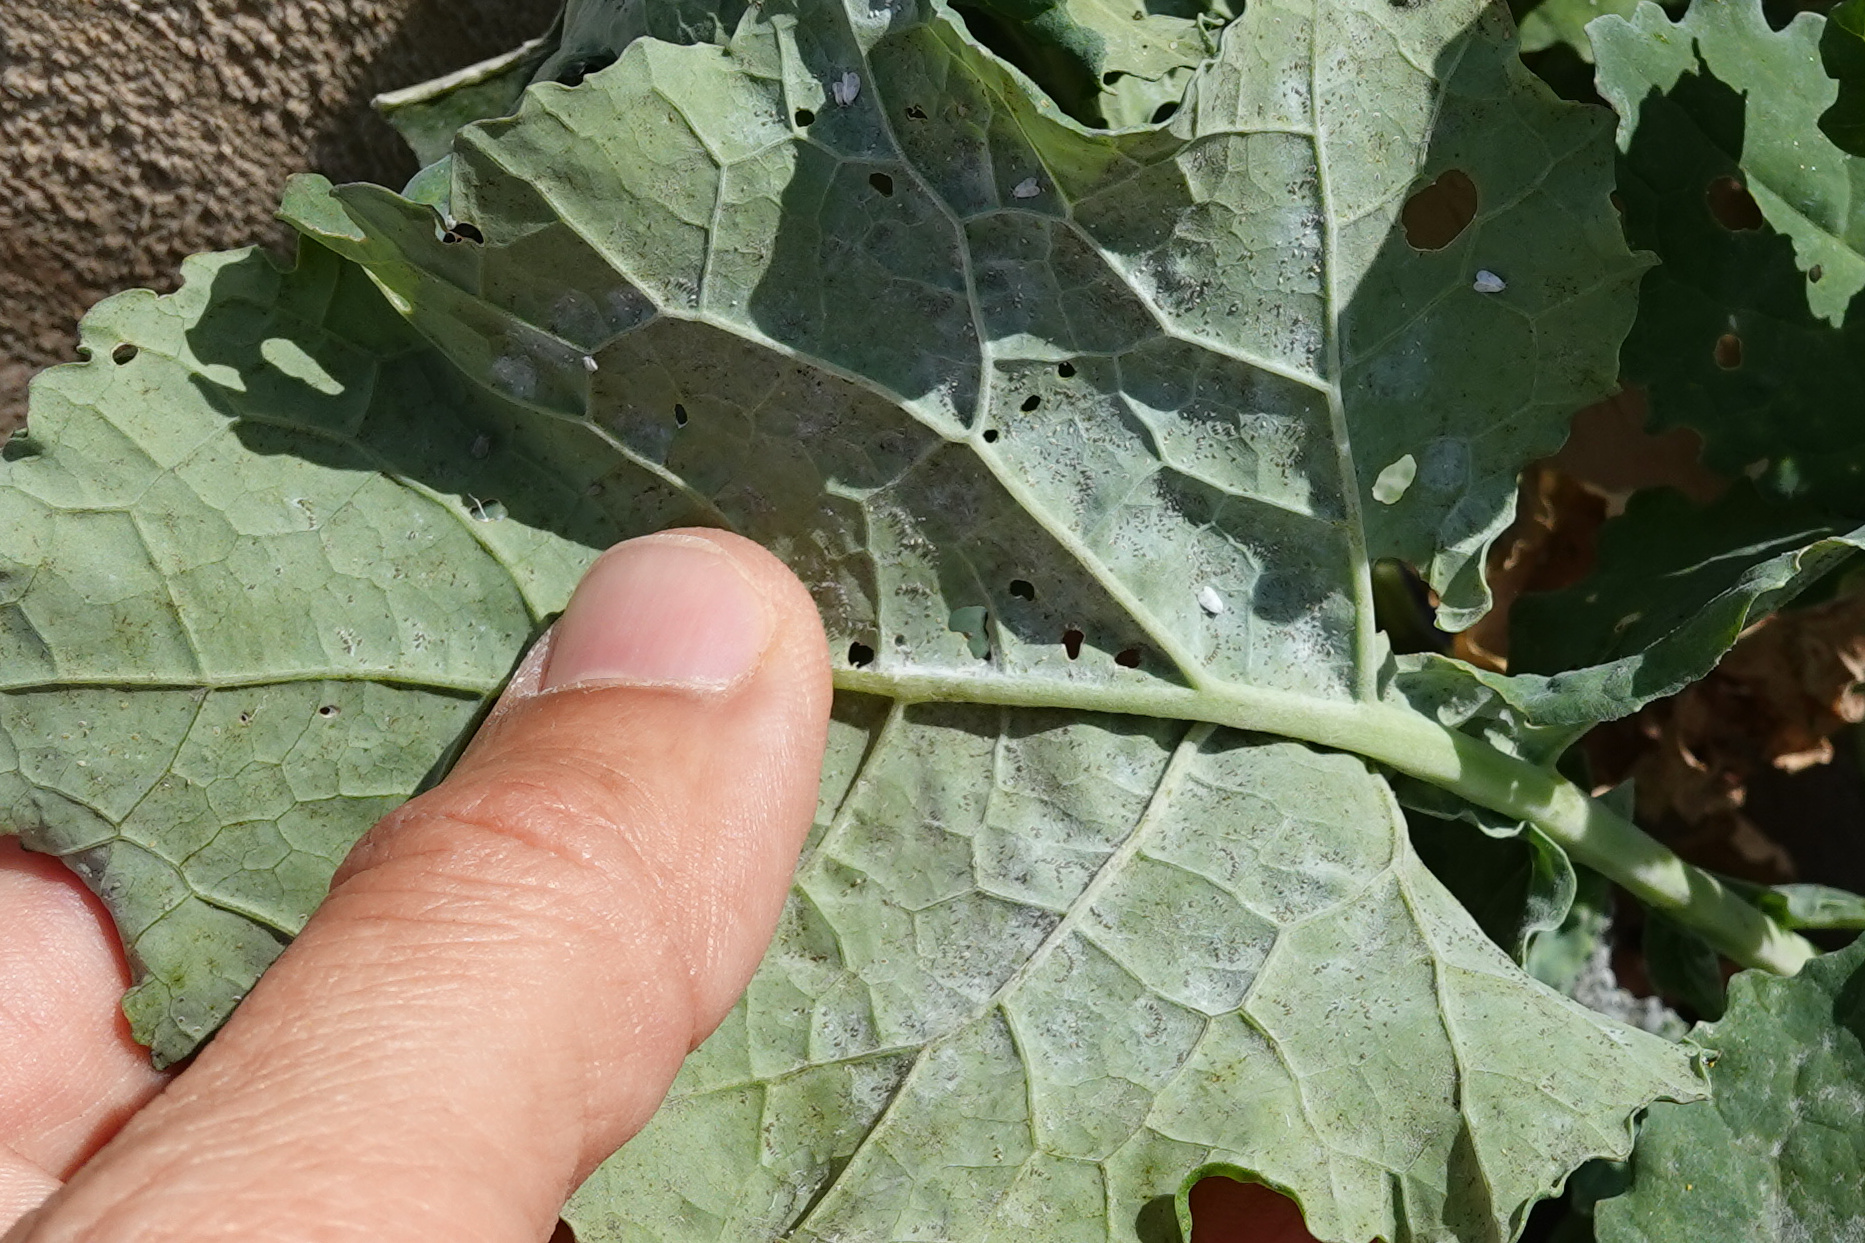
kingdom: Animalia
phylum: Arthropoda
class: Insecta
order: Hemiptera
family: Aleyrodidae
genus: Aleyrodes
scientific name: Aleyrodes proletella
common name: Cabbage whitefly
